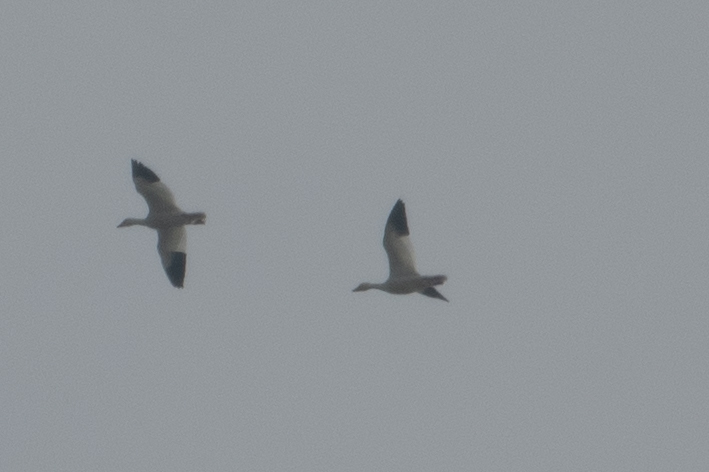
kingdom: Animalia
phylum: Chordata
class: Aves
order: Anseriformes
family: Anatidae
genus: Anser
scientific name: Anser caerulescens
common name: Snow goose
